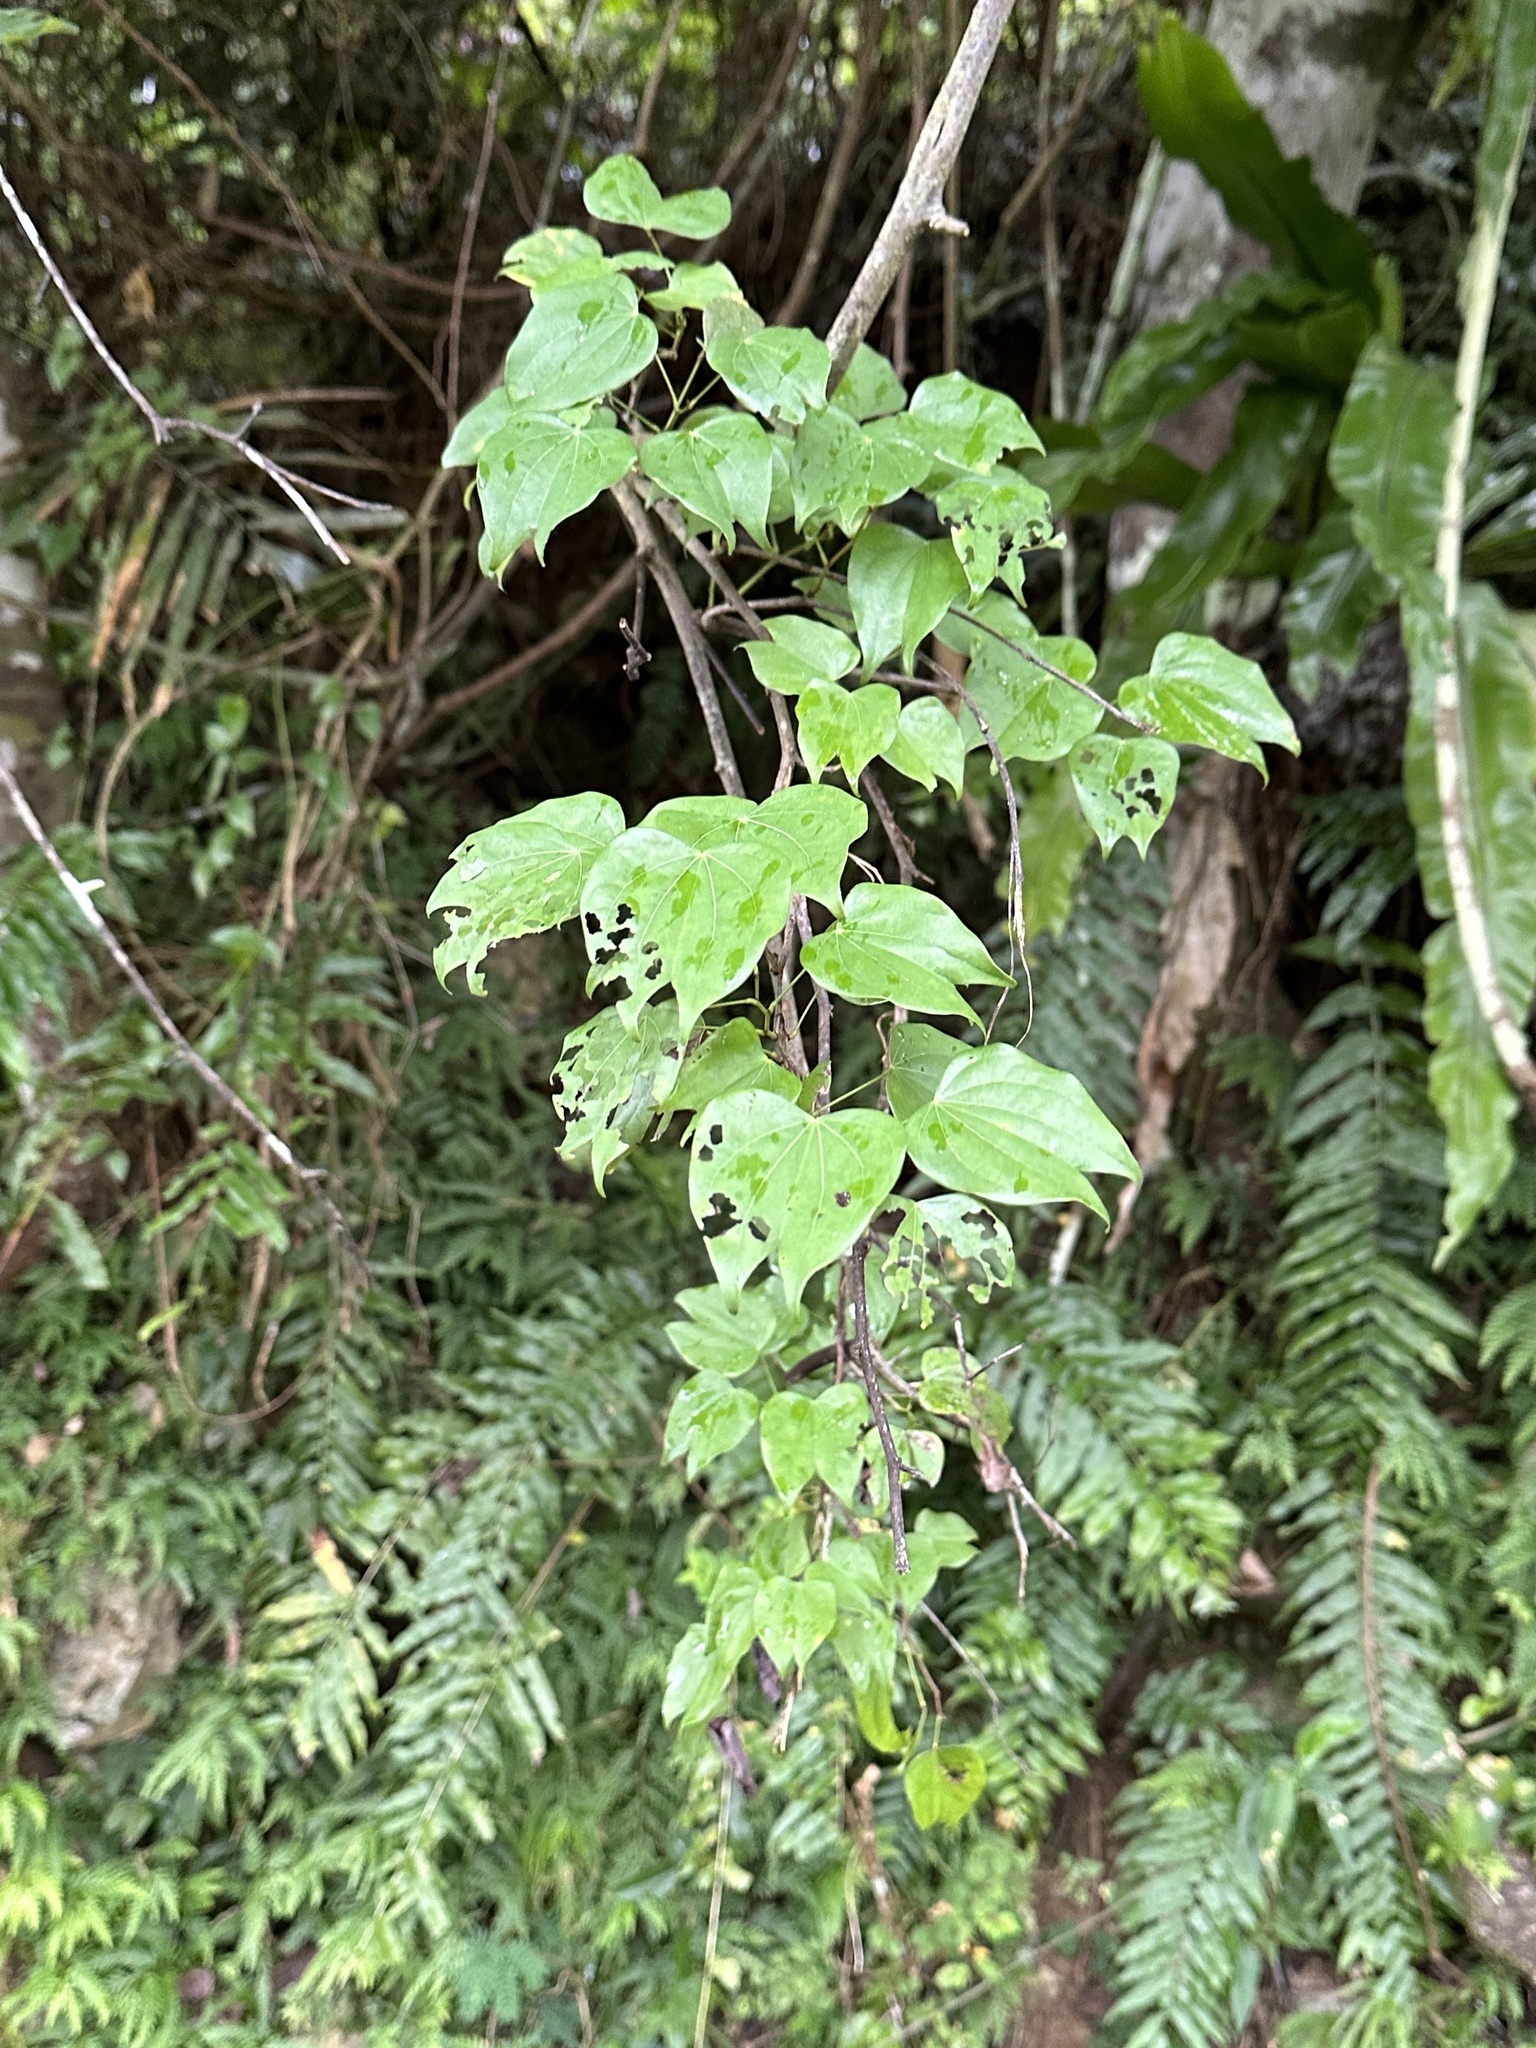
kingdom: Plantae
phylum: Tracheophyta
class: Magnoliopsida
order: Fabales
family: Fabaceae
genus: Phanera
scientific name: Phanera championii
